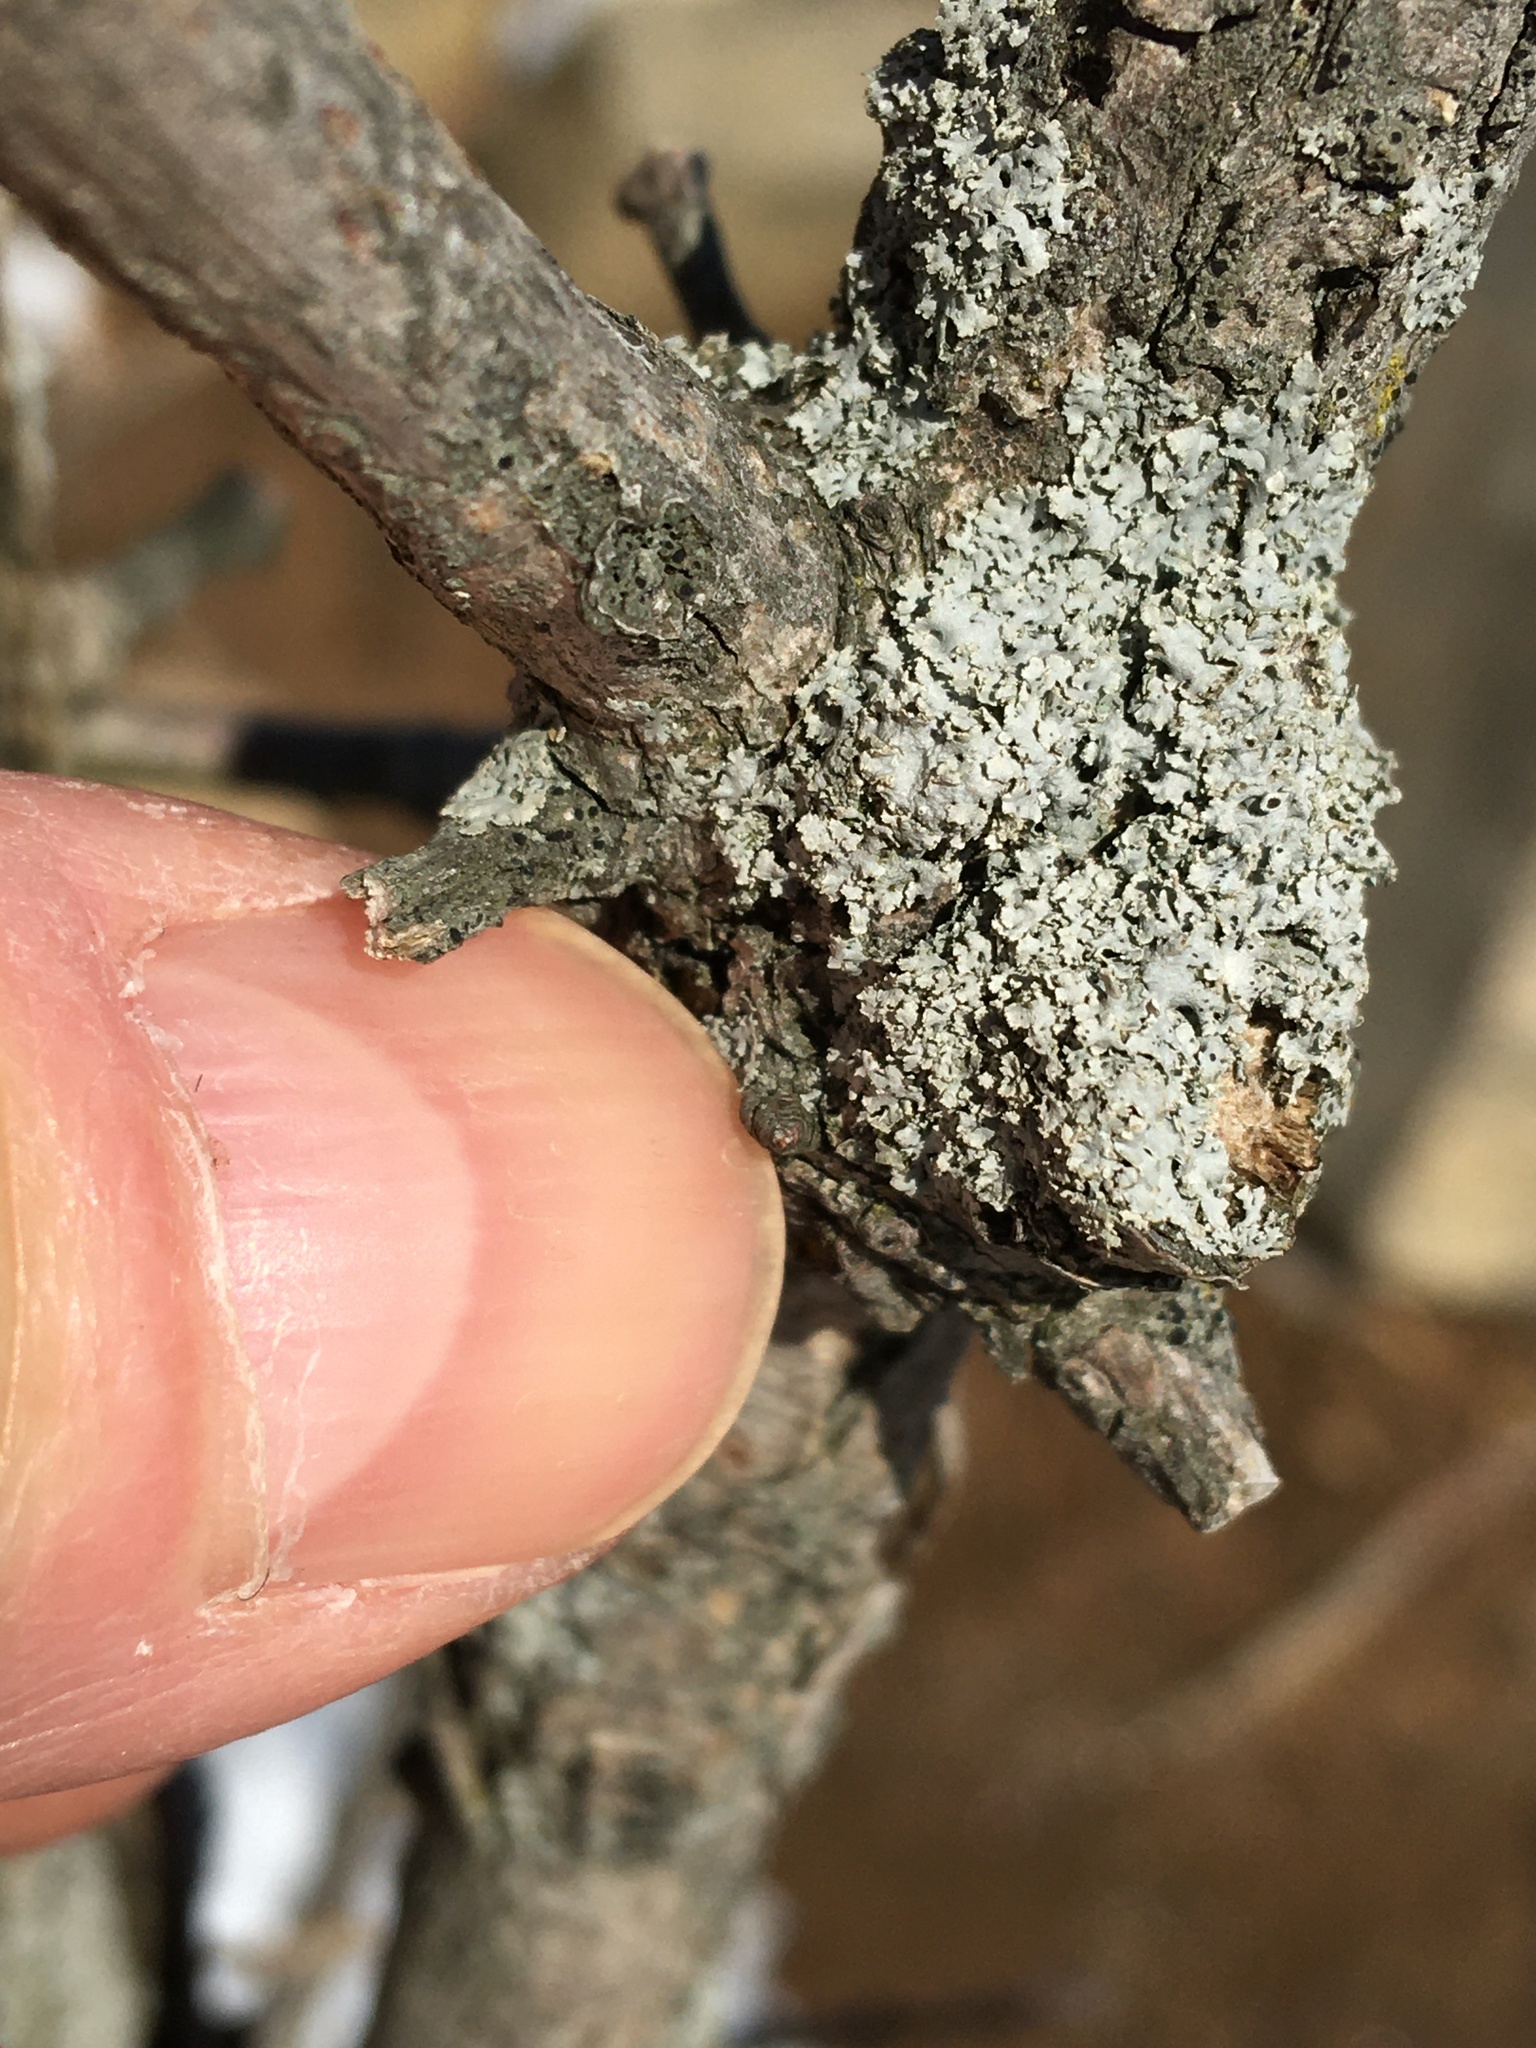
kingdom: Fungi
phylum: Ascomycota
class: Lecanoromycetes
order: Caliciales
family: Physciaceae
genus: Physcia
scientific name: Physcia stellaris
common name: Star rosette lichen
